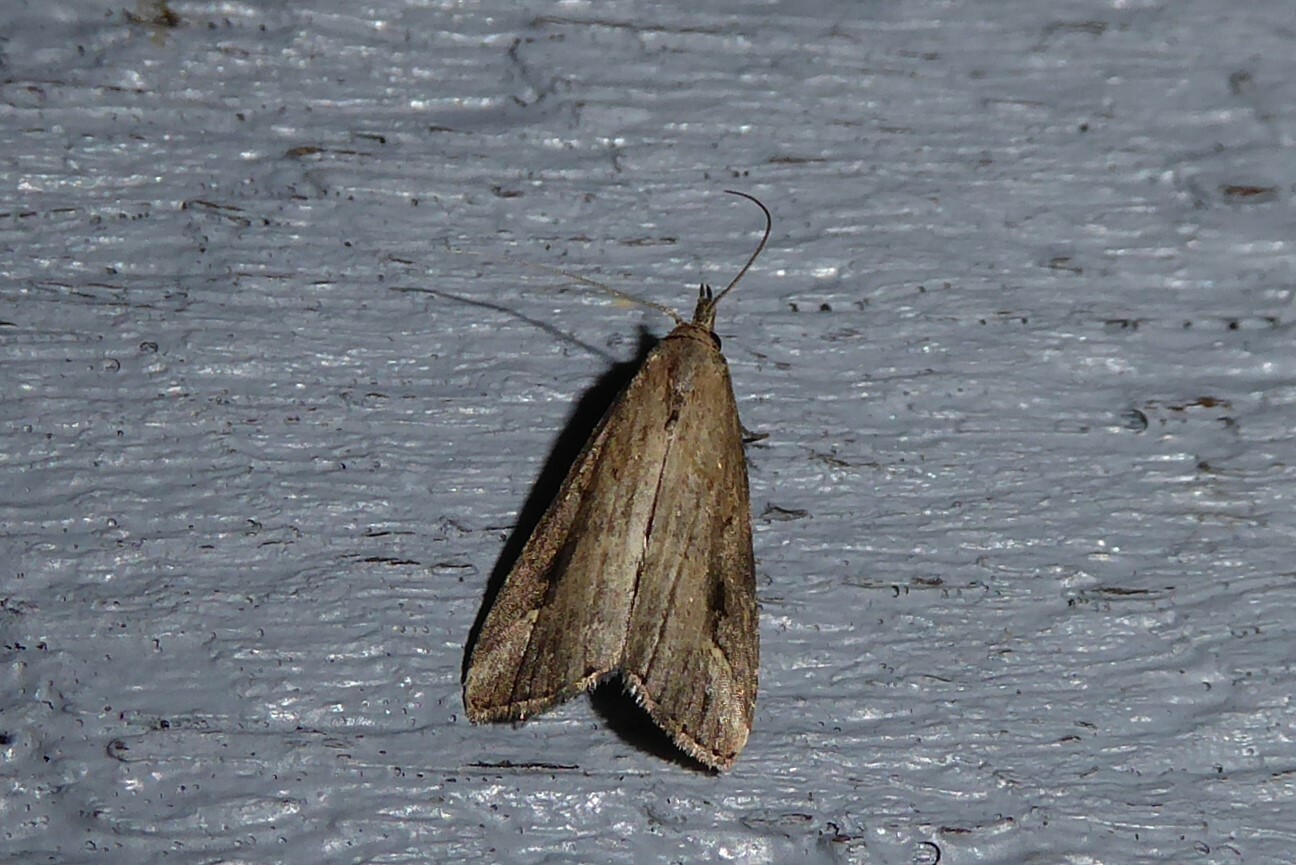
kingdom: Animalia
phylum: Arthropoda
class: Insecta
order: Lepidoptera
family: Erebidae
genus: Schrankia
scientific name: Schrankia costaestrigalis
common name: Pinion-streaked snout
